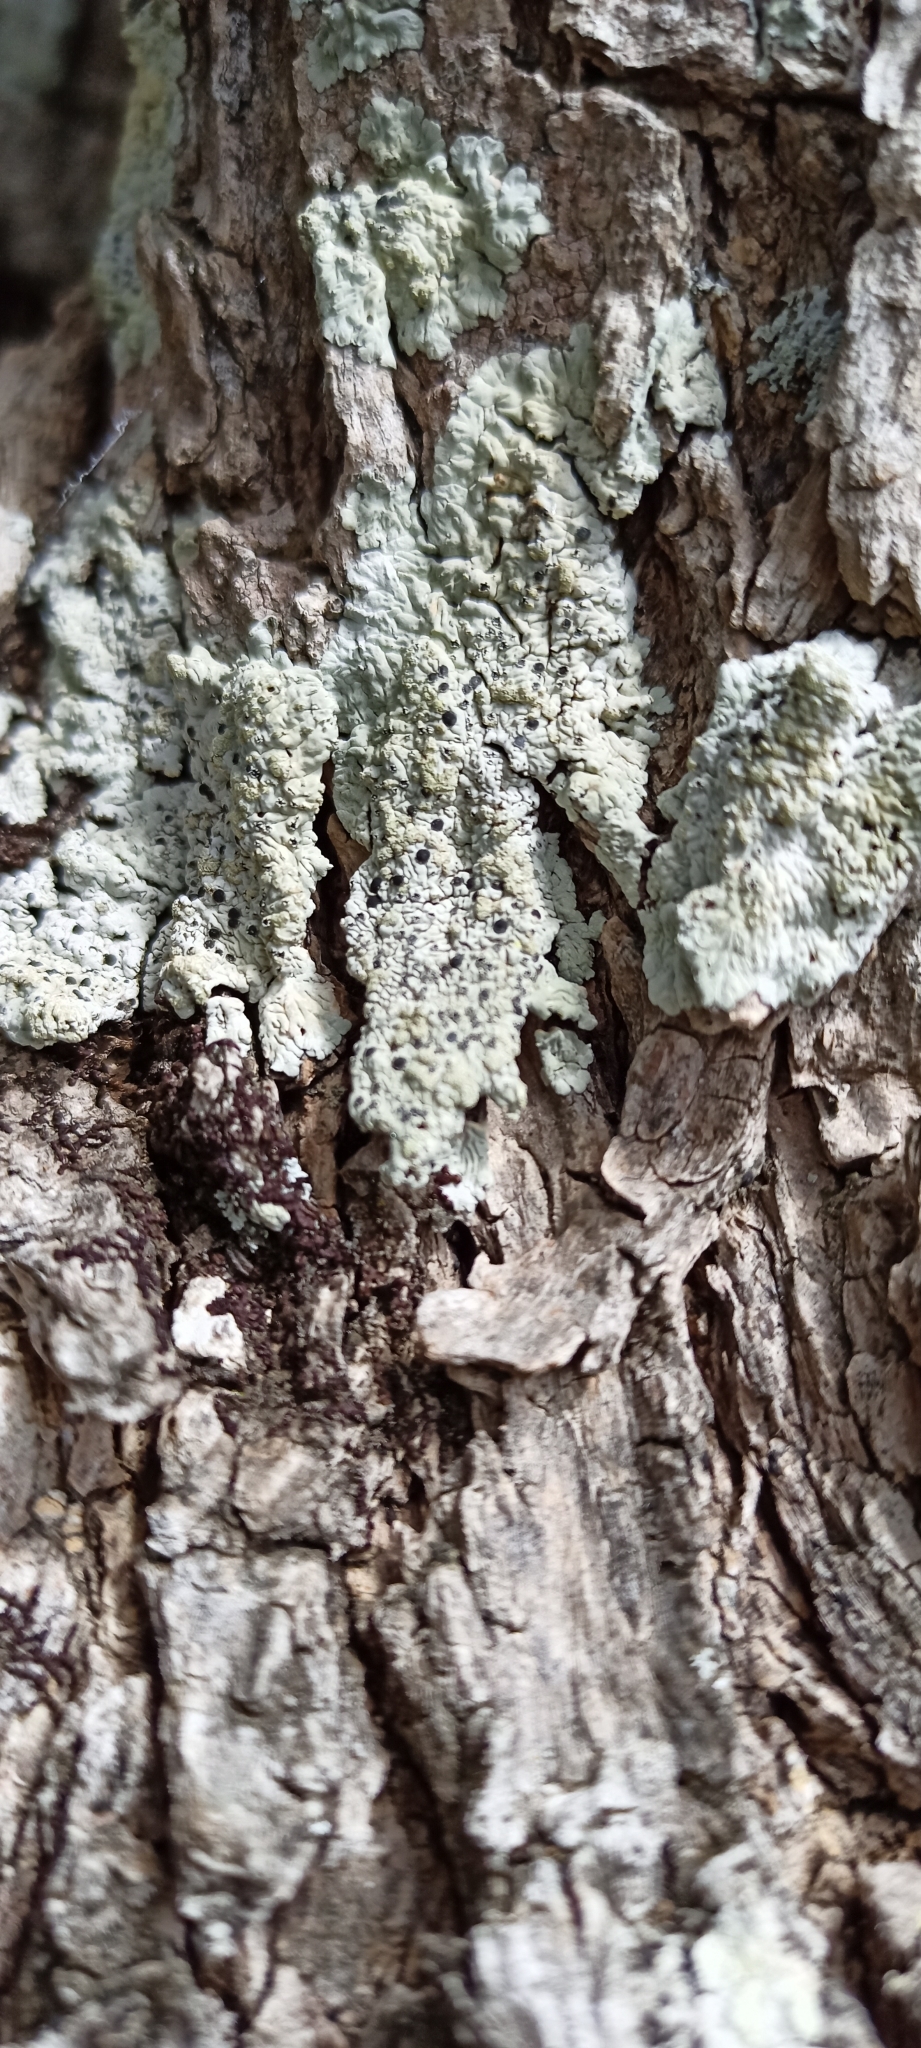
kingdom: Fungi
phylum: Ascomycota
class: Lecanoromycetes
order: Caliciales
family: Caliciaceae
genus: Diploicia
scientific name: Diploicia canescens
